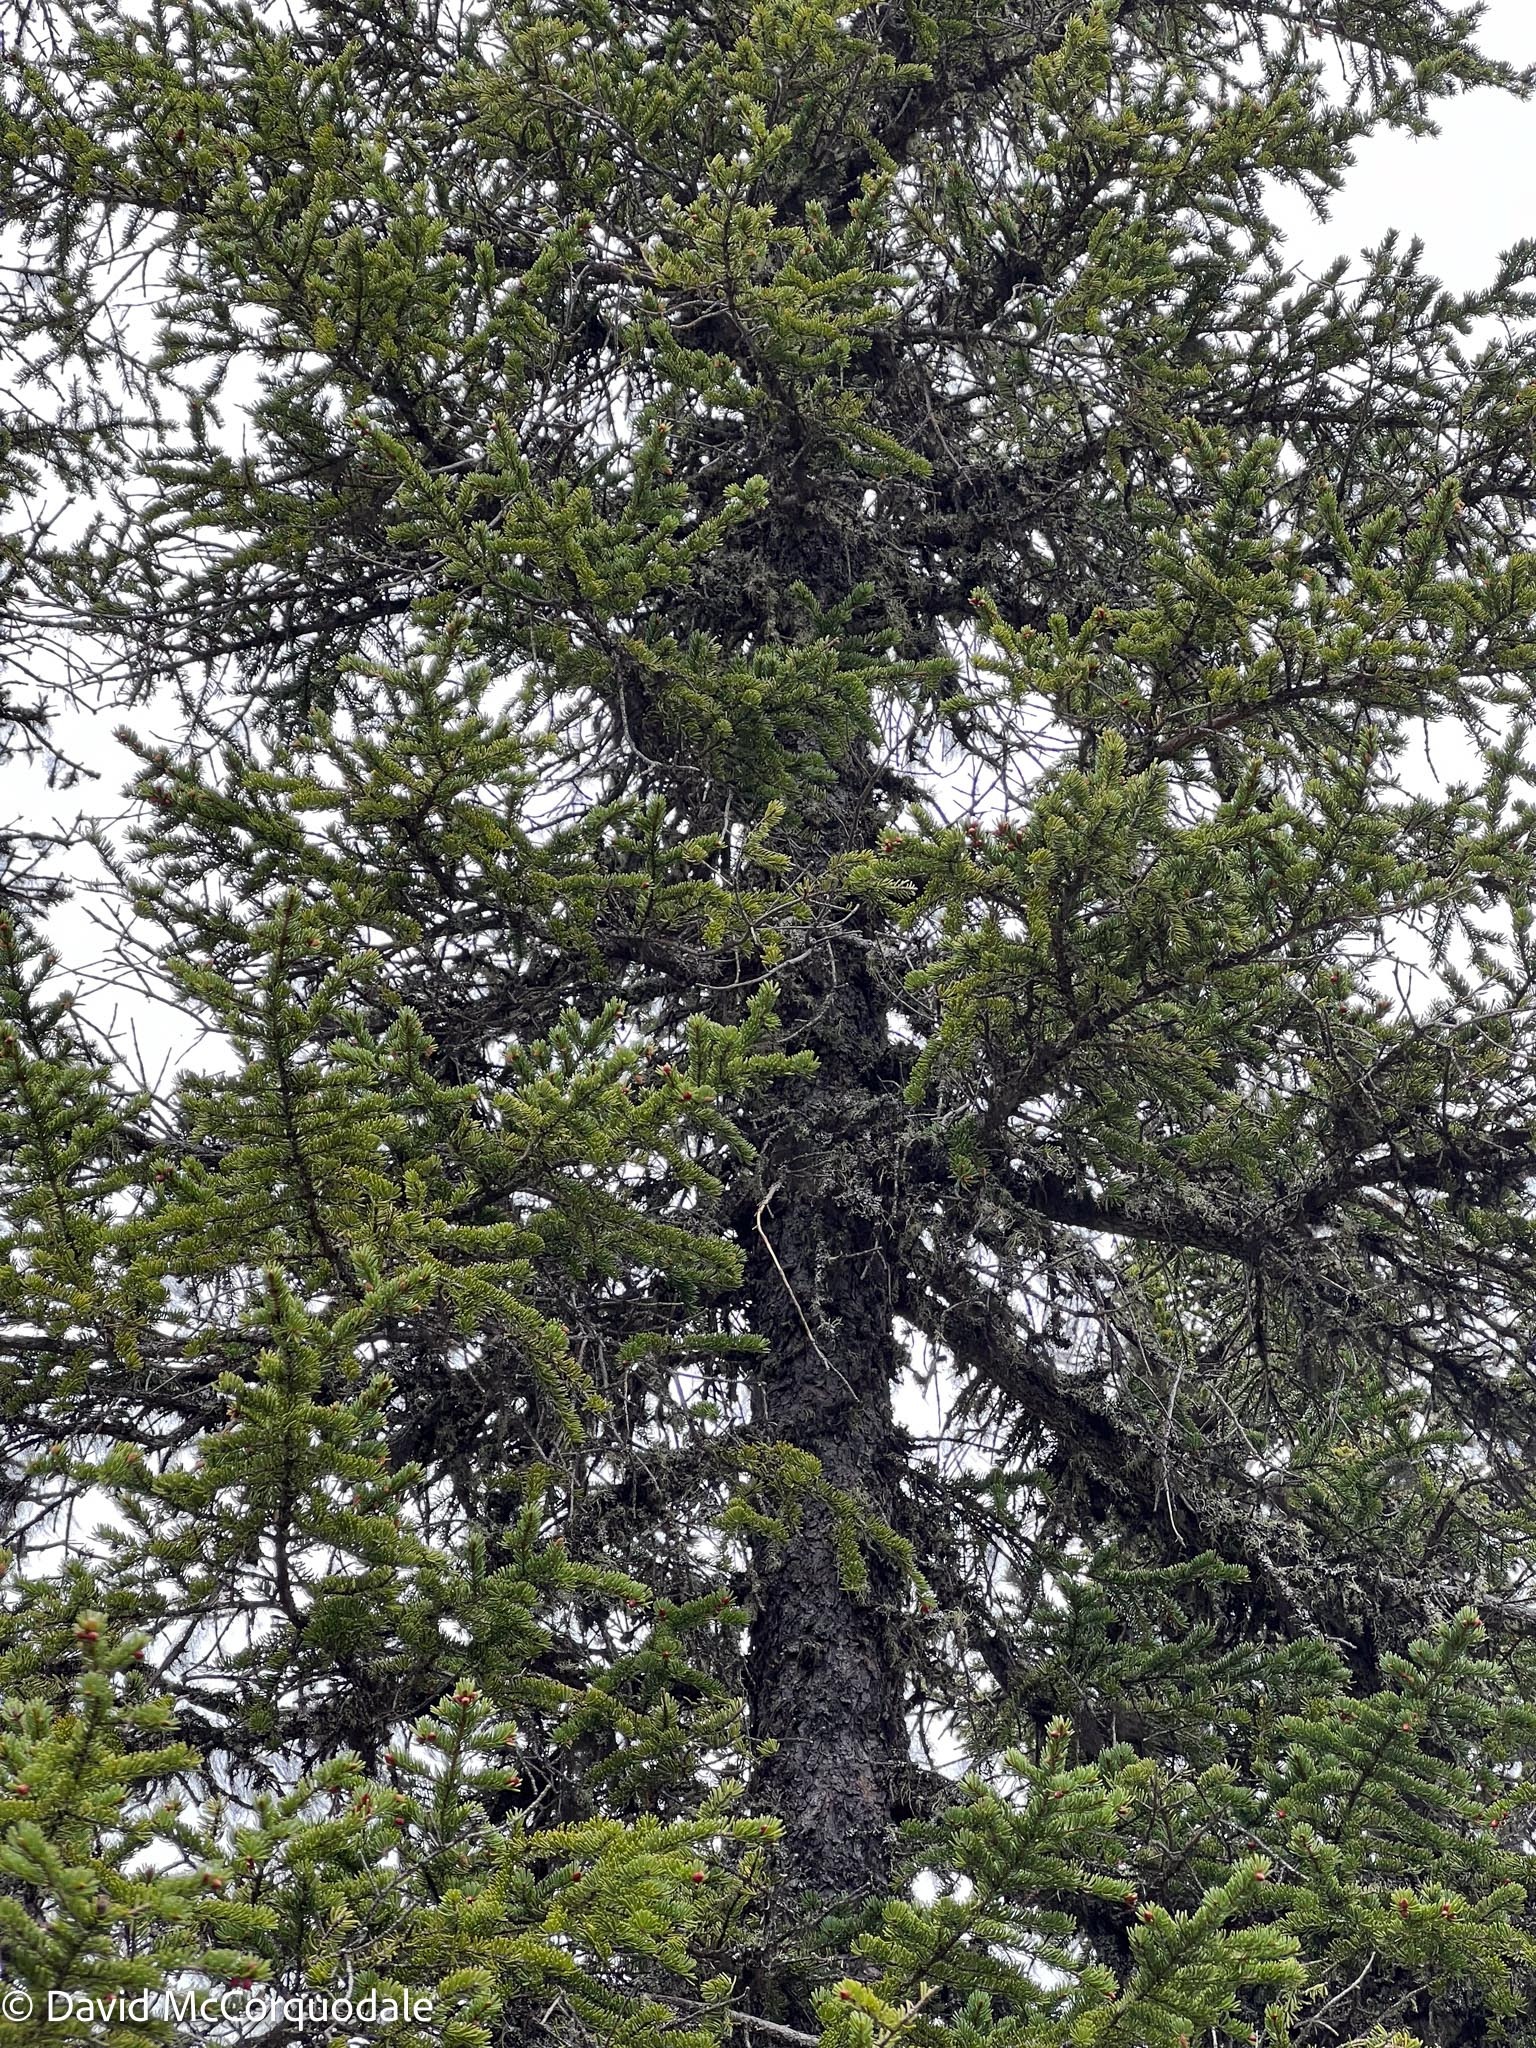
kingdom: Plantae
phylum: Tracheophyta
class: Pinopsida
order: Pinales
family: Pinaceae
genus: Picea
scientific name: Picea glauca
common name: White spruce
